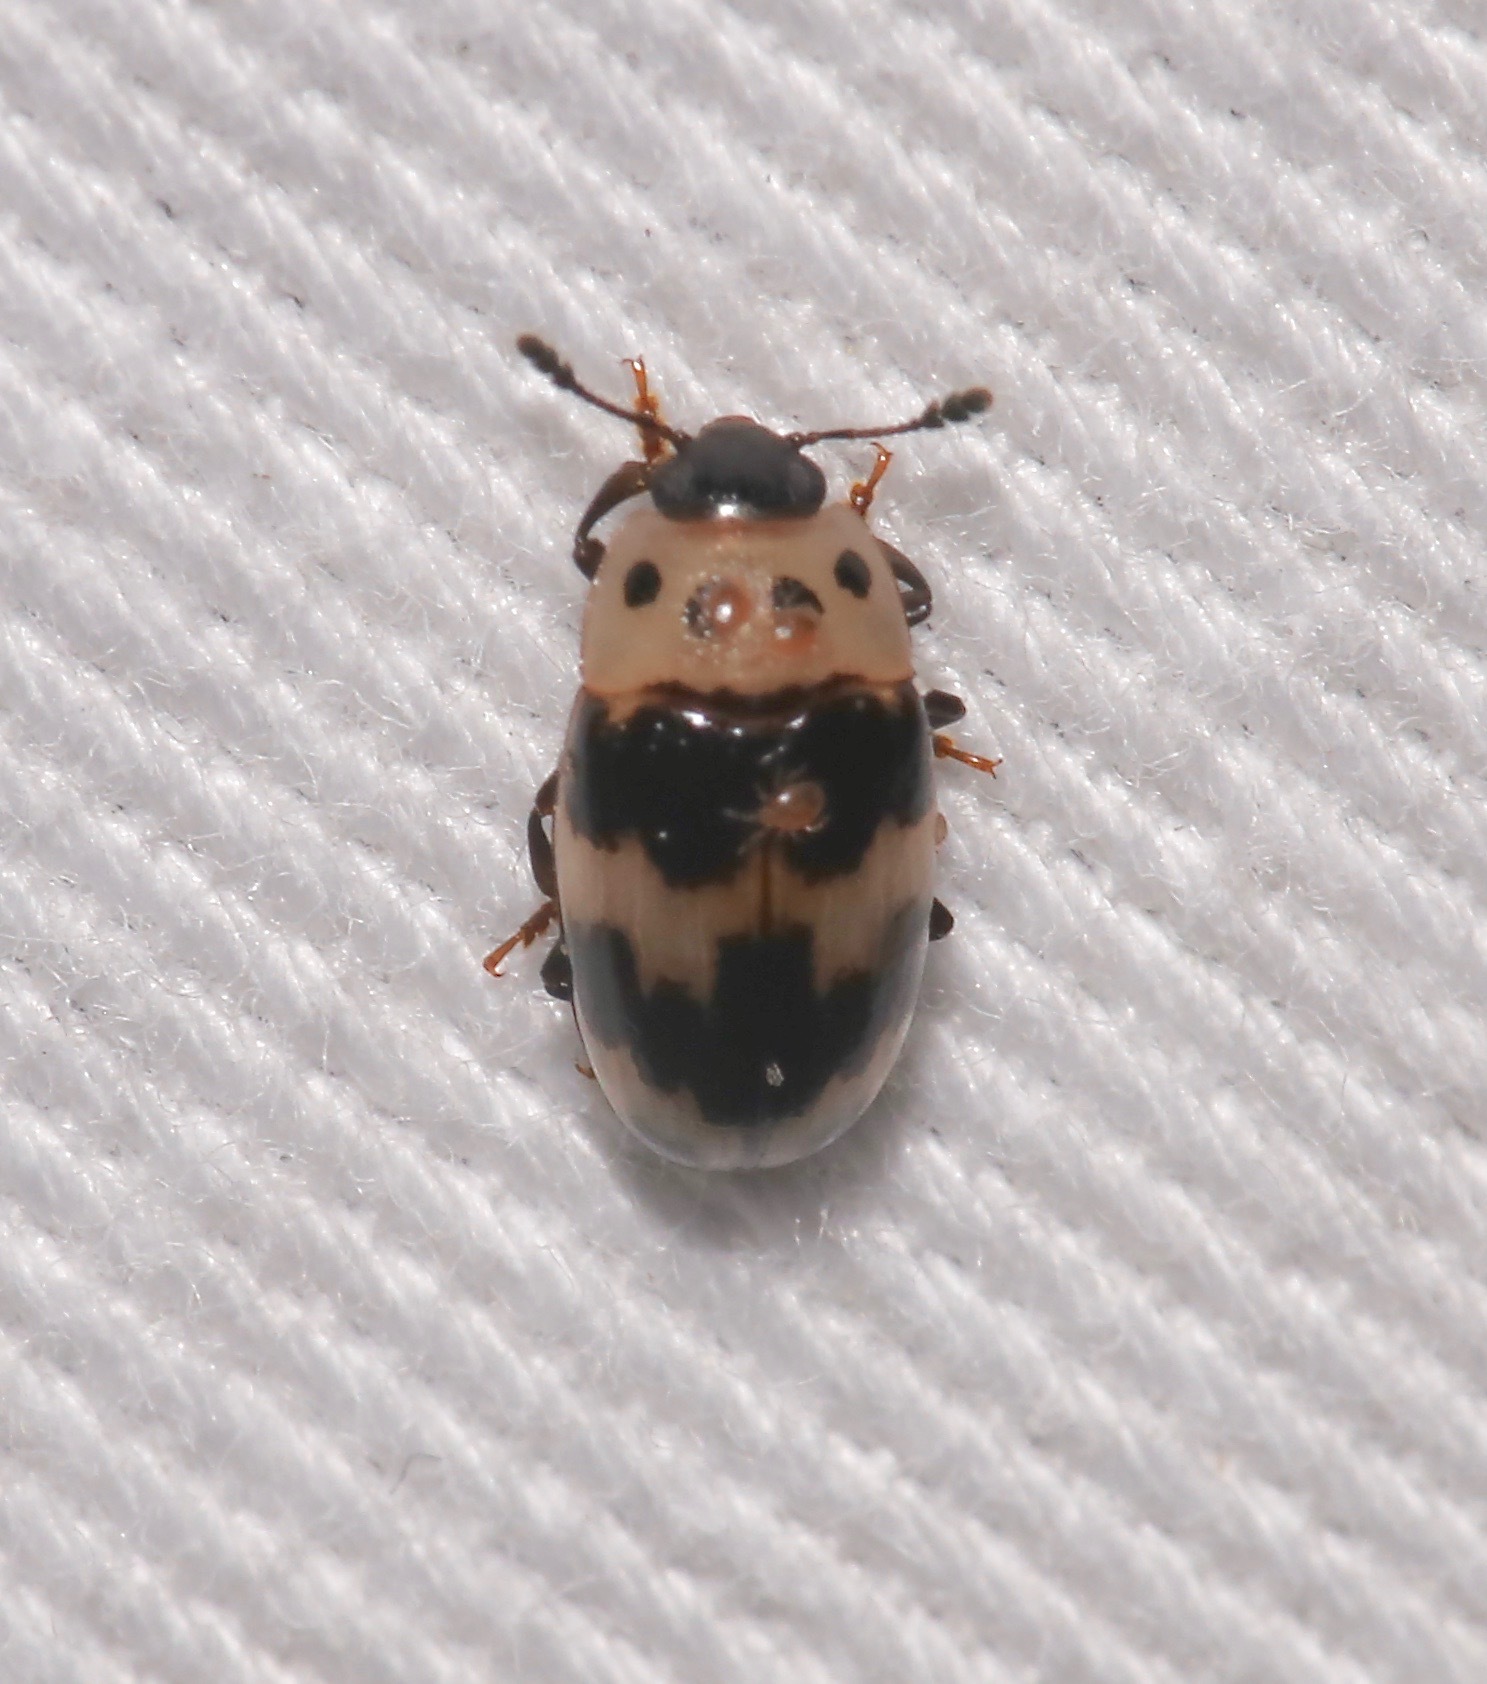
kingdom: Animalia
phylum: Arthropoda
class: Insecta
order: Coleoptera
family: Erotylidae
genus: Ischyrus
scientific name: Ischyrus quadripunctatus
